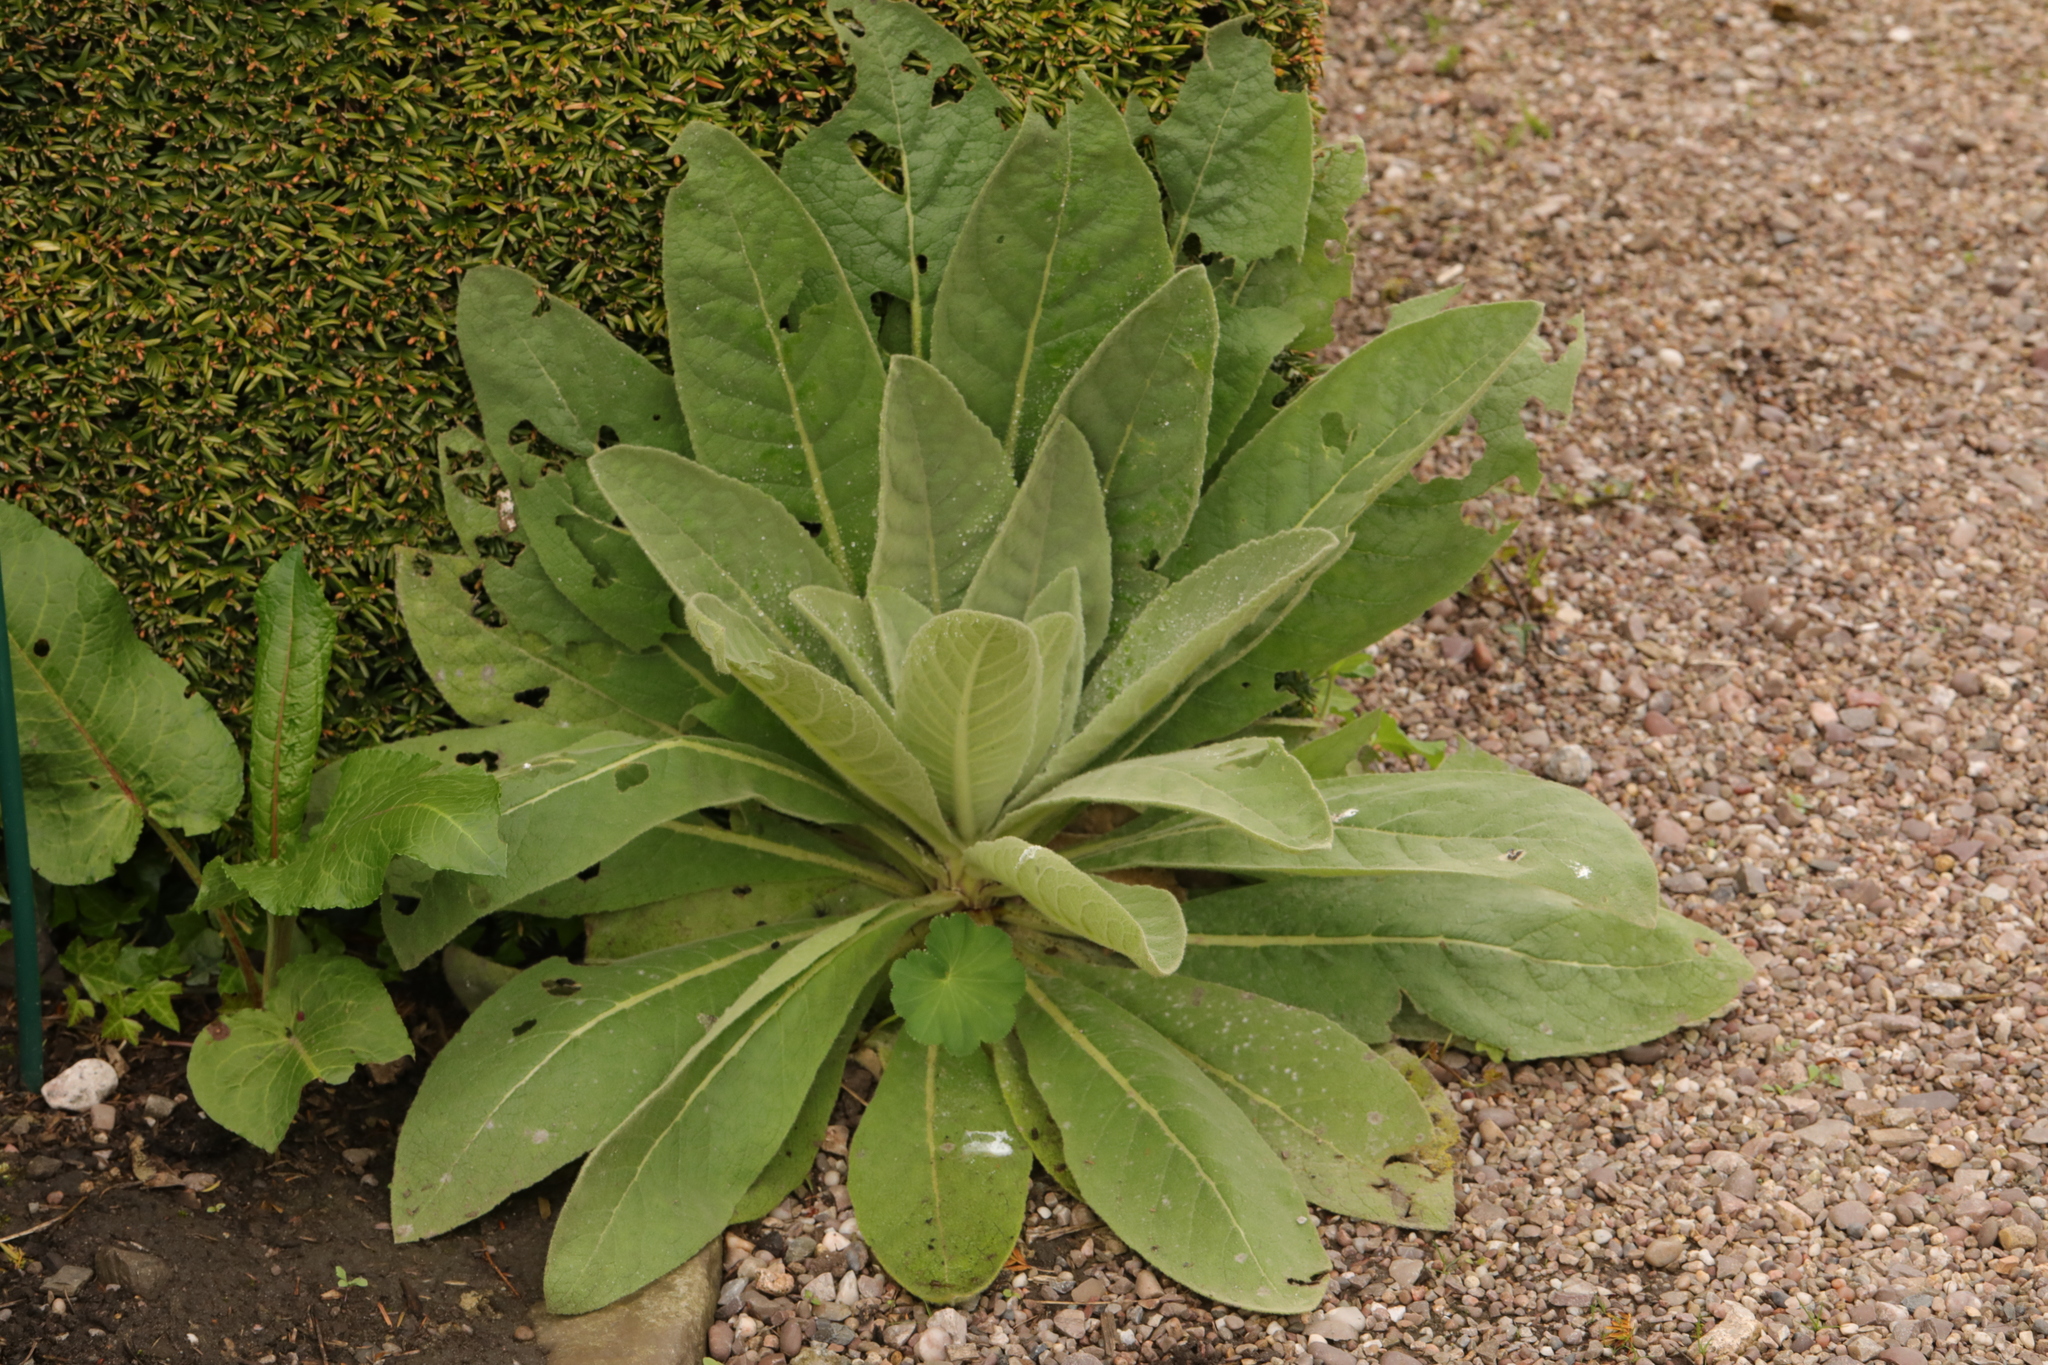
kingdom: Plantae
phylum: Tracheophyta
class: Magnoliopsida
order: Lamiales
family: Scrophulariaceae
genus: Verbascum
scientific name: Verbascum thapsus
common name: Common mullein
